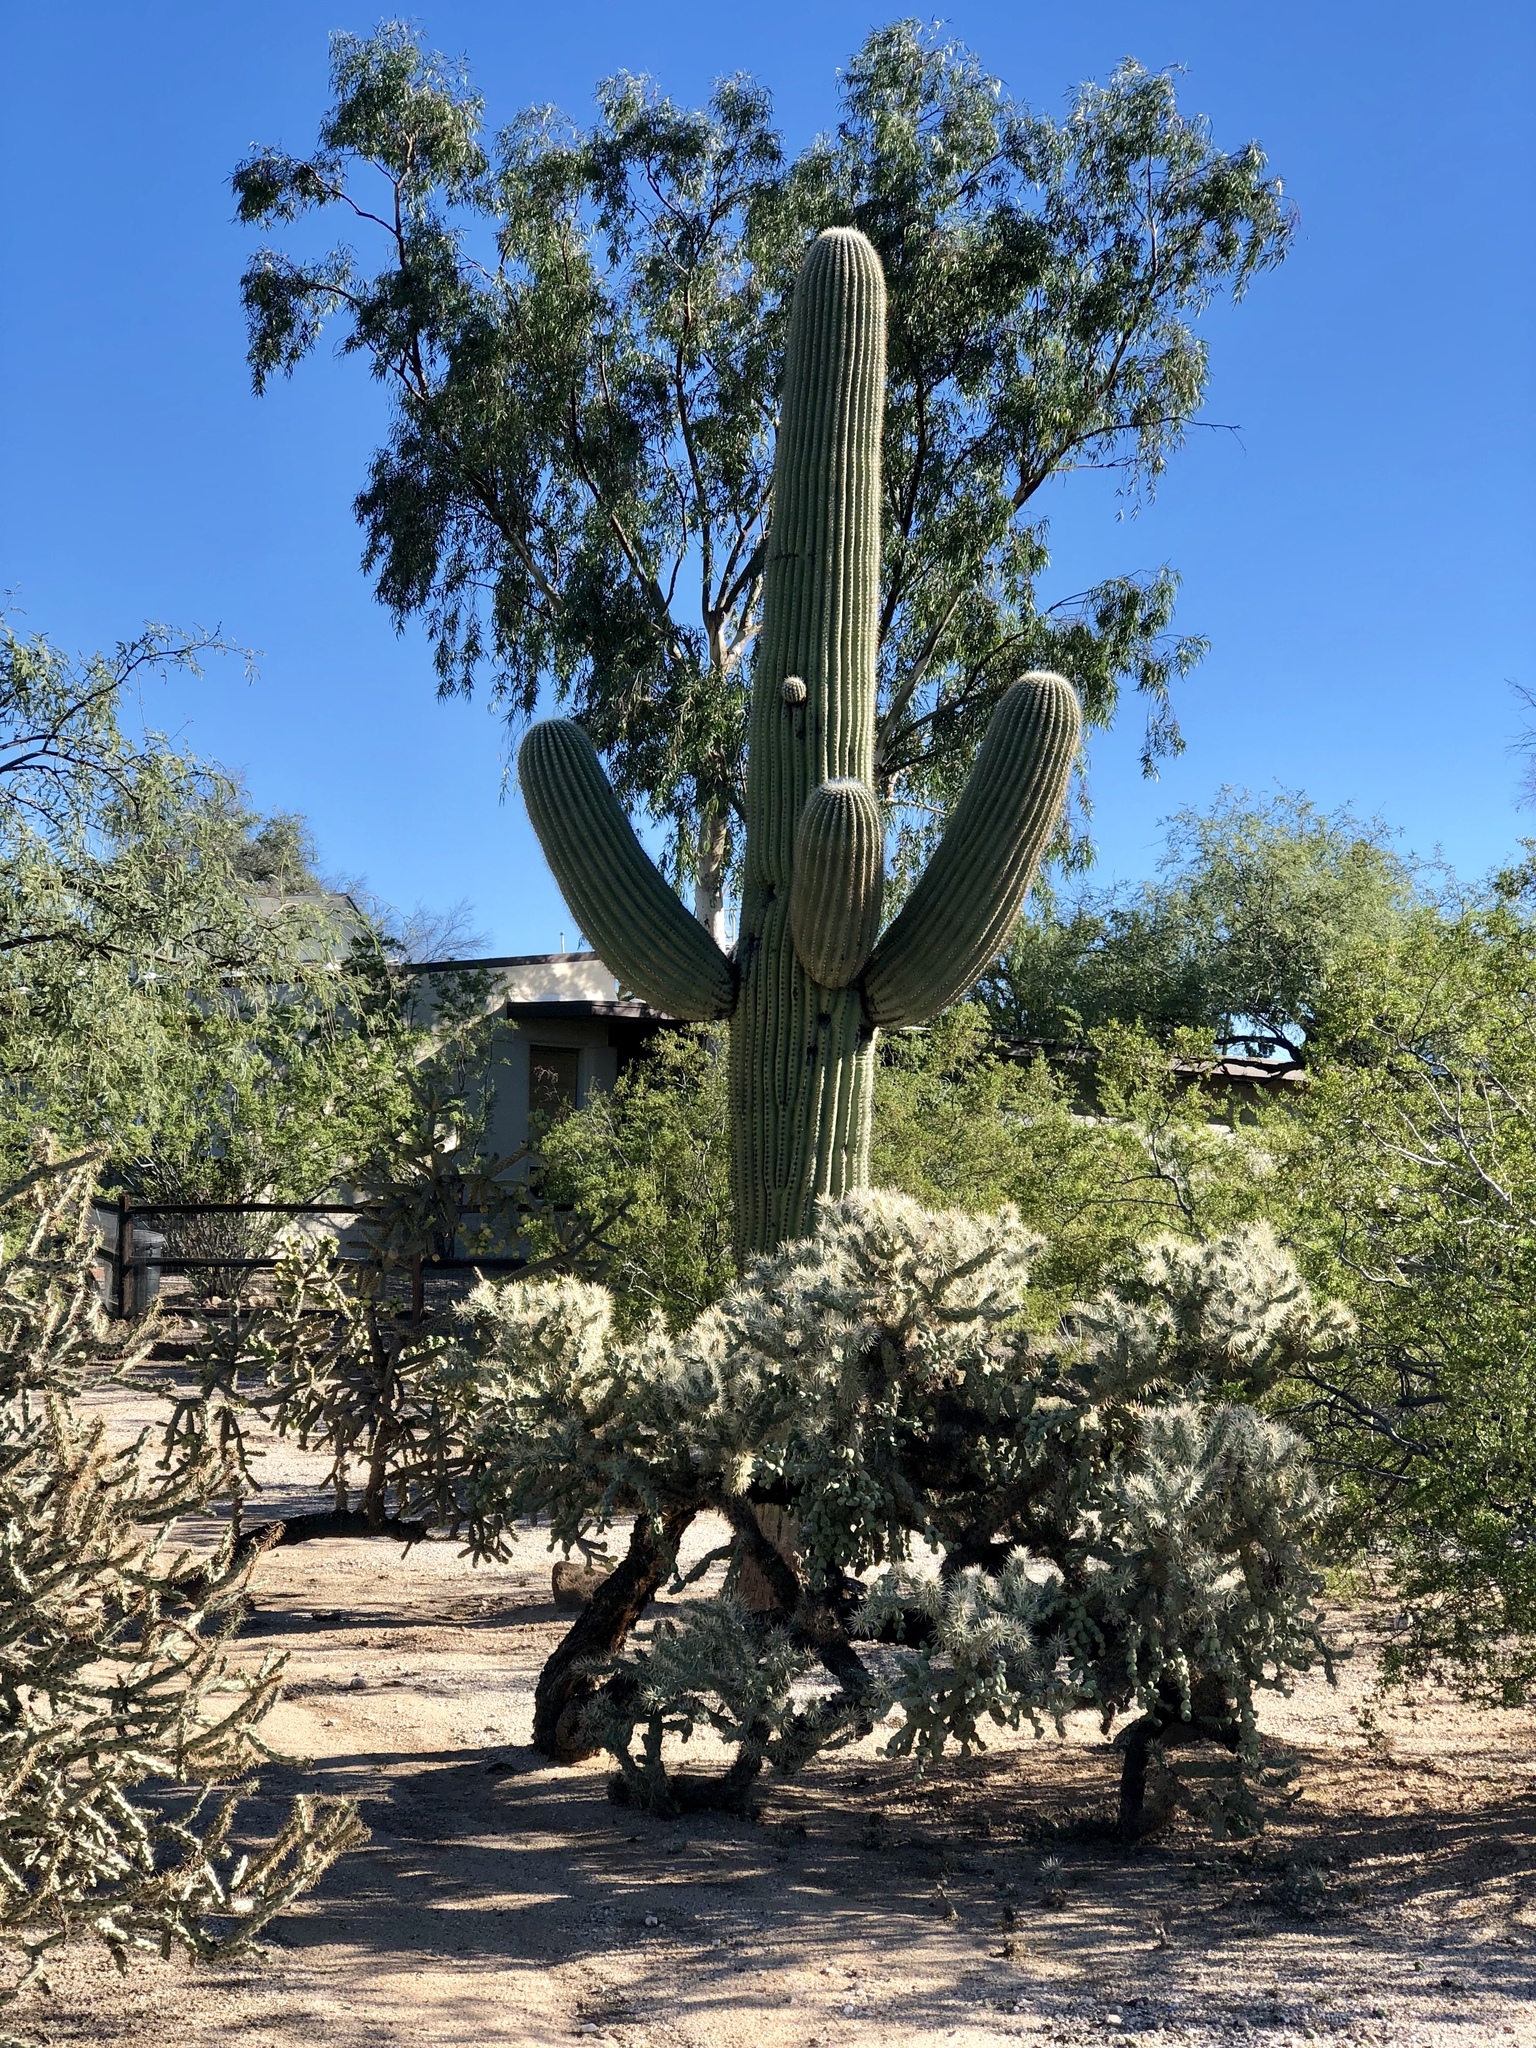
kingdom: Plantae
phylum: Tracheophyta
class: Magnoliopsida
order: Caryophyllales
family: Cactaceae
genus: Carnegiea
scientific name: Carnegiea gigantea
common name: Saguaro
